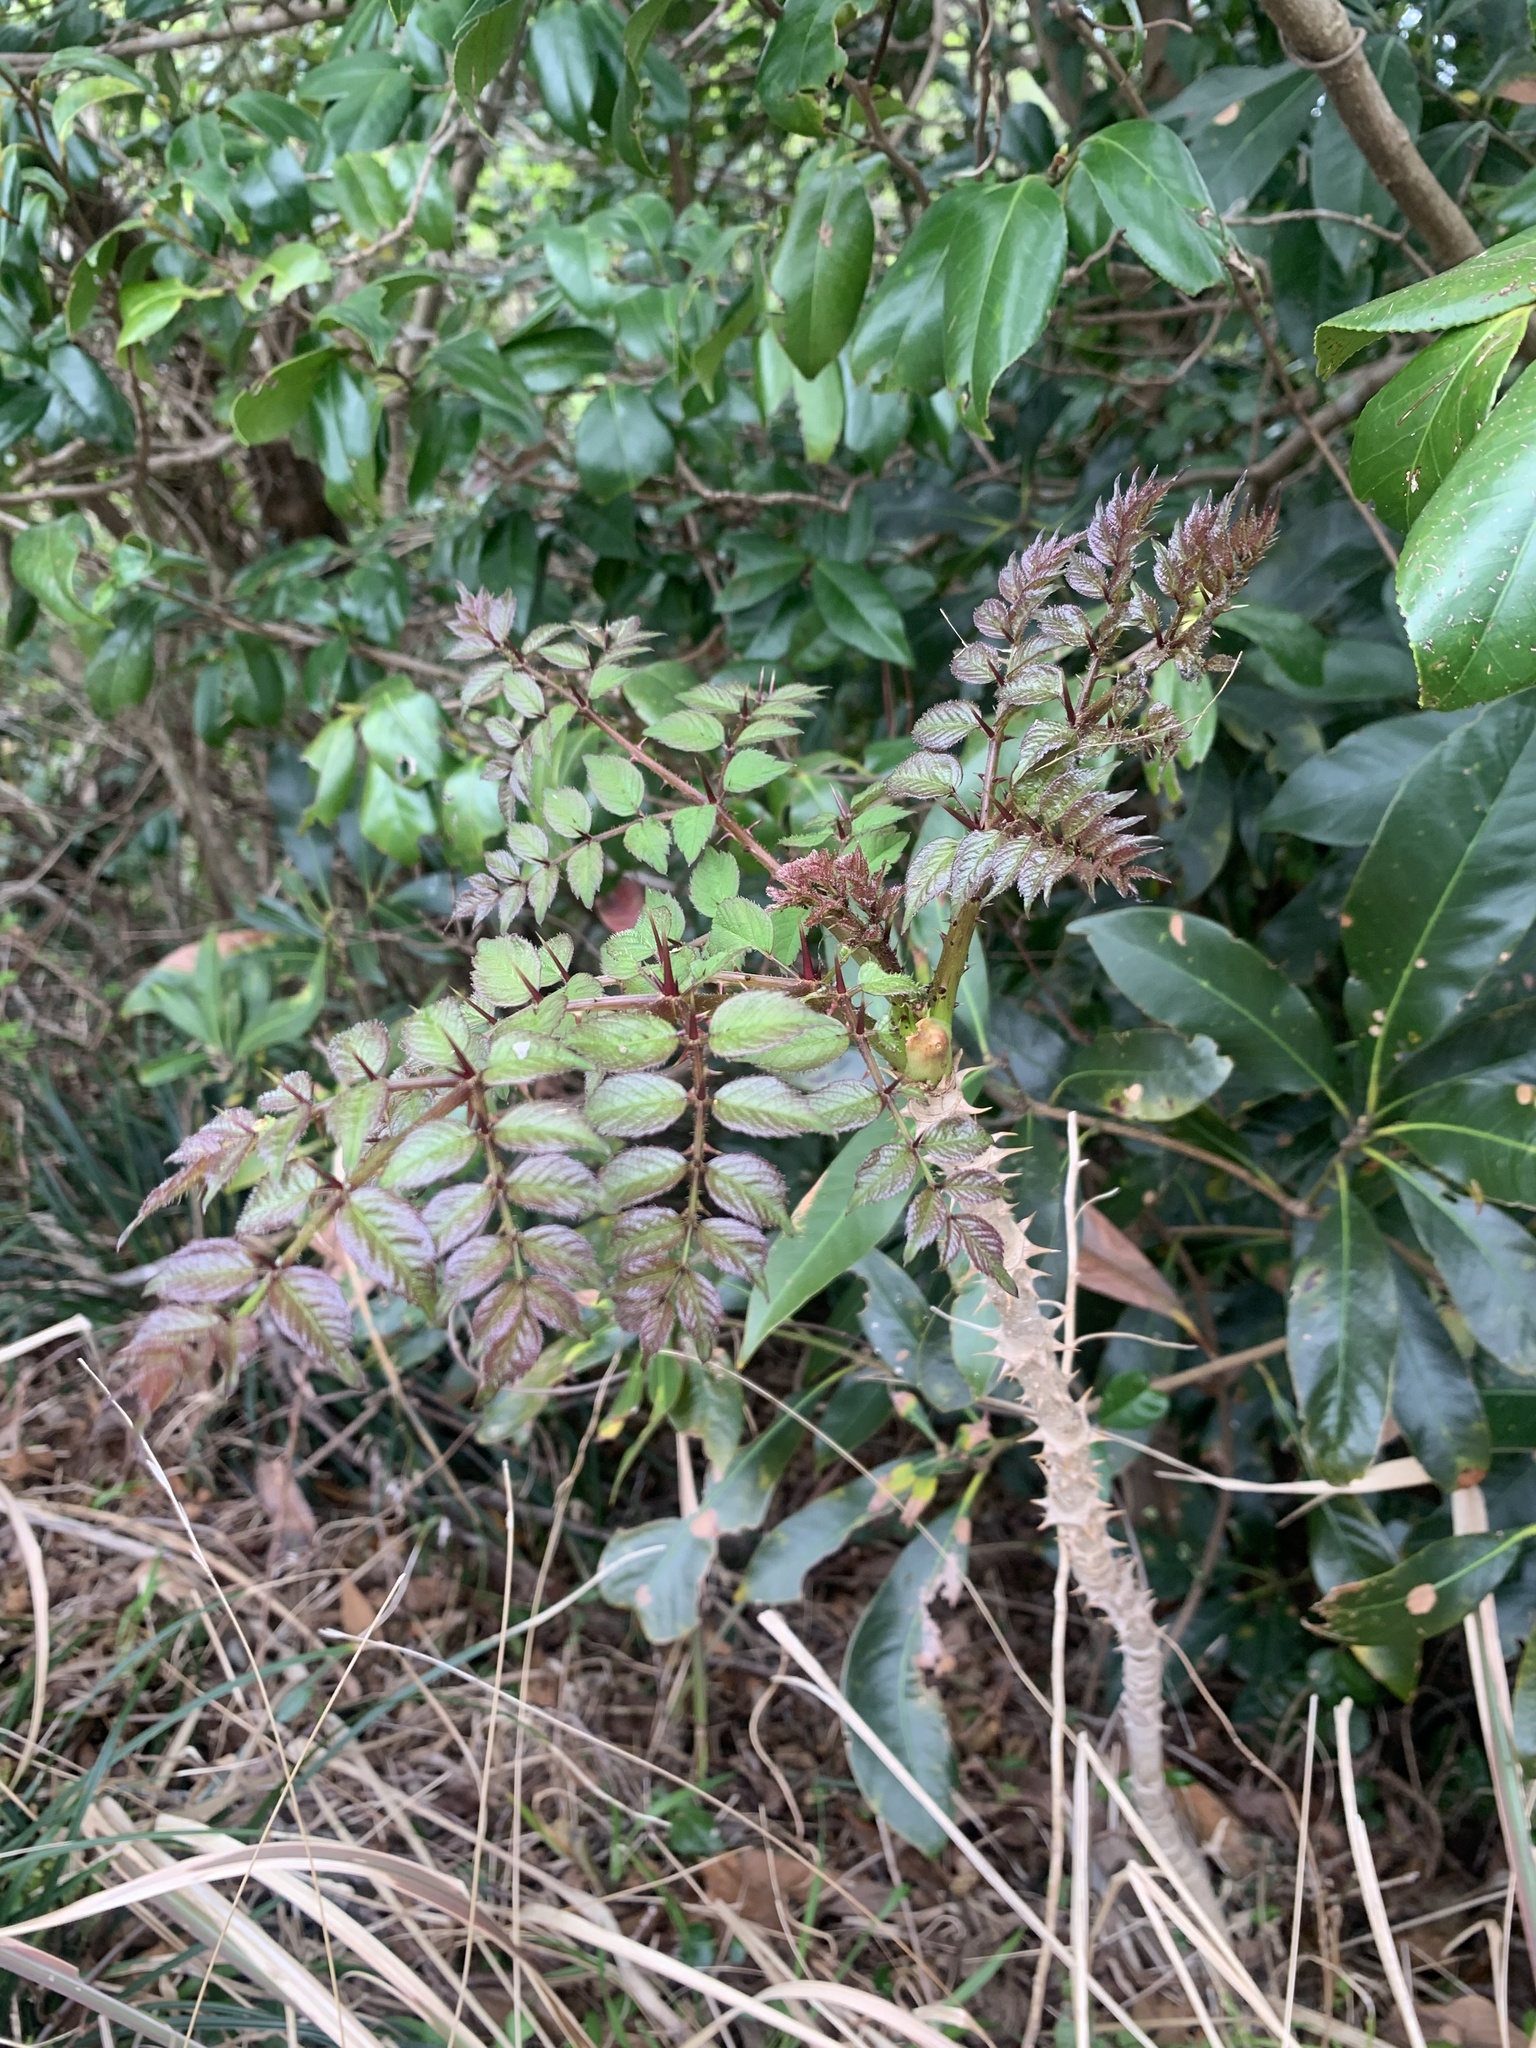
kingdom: Plantae
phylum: Tracheophyta
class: Magnoliopsida
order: Apiales
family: Araliaceae
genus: Aralia
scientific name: Aralia elata
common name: Japanese angelica-tree
